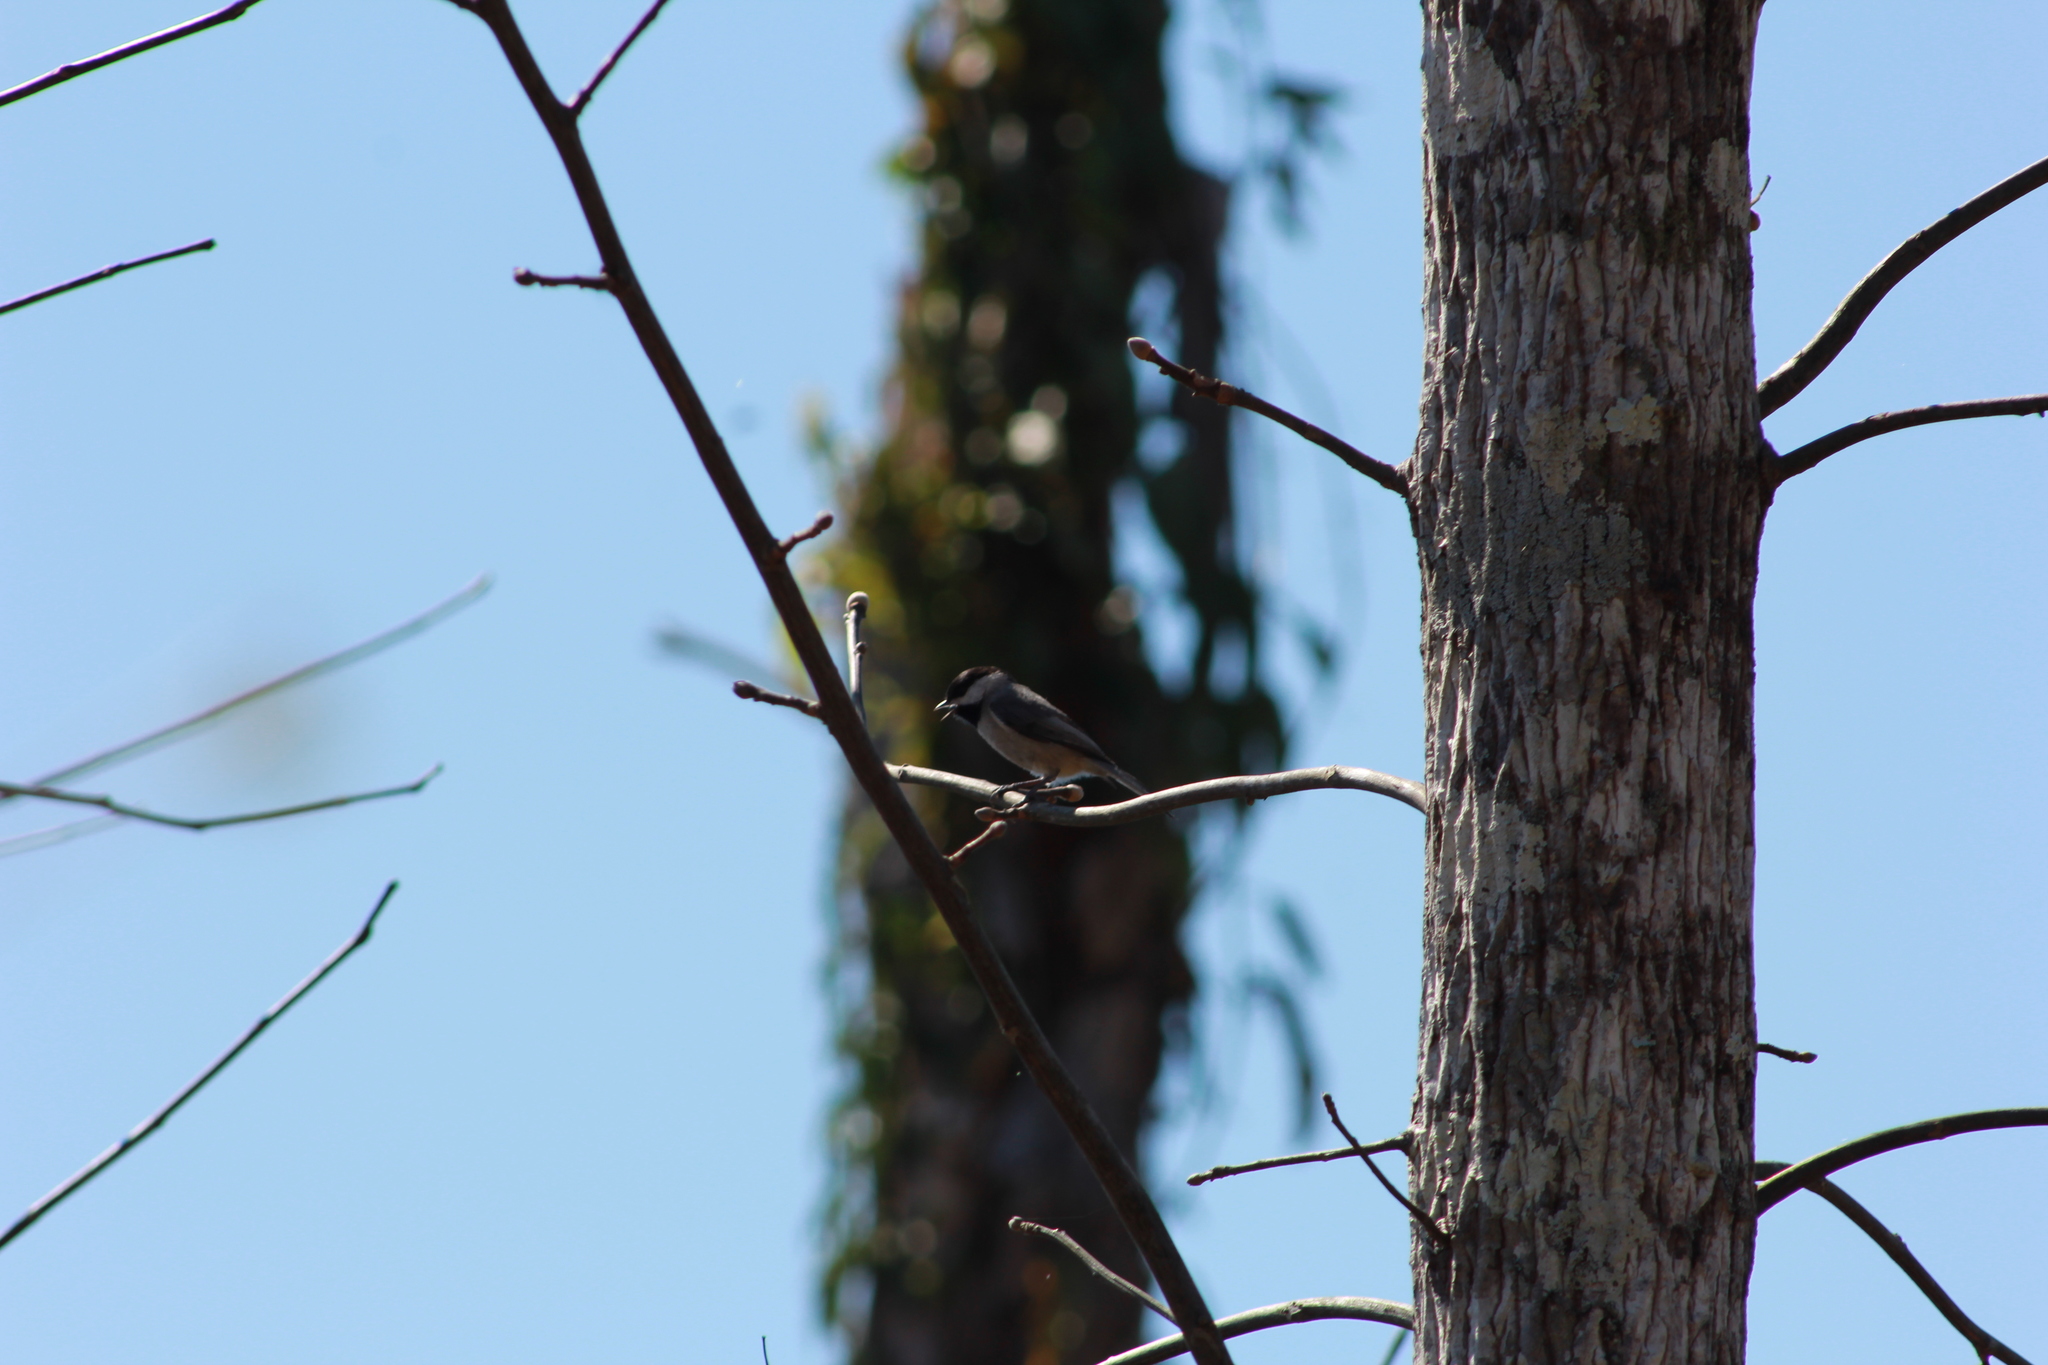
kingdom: Animalia
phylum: Chordata
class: Aves
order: Passeriformes
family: Paridae
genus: Poecile
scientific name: Poecile carolinensis
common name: Carolina chickadee
